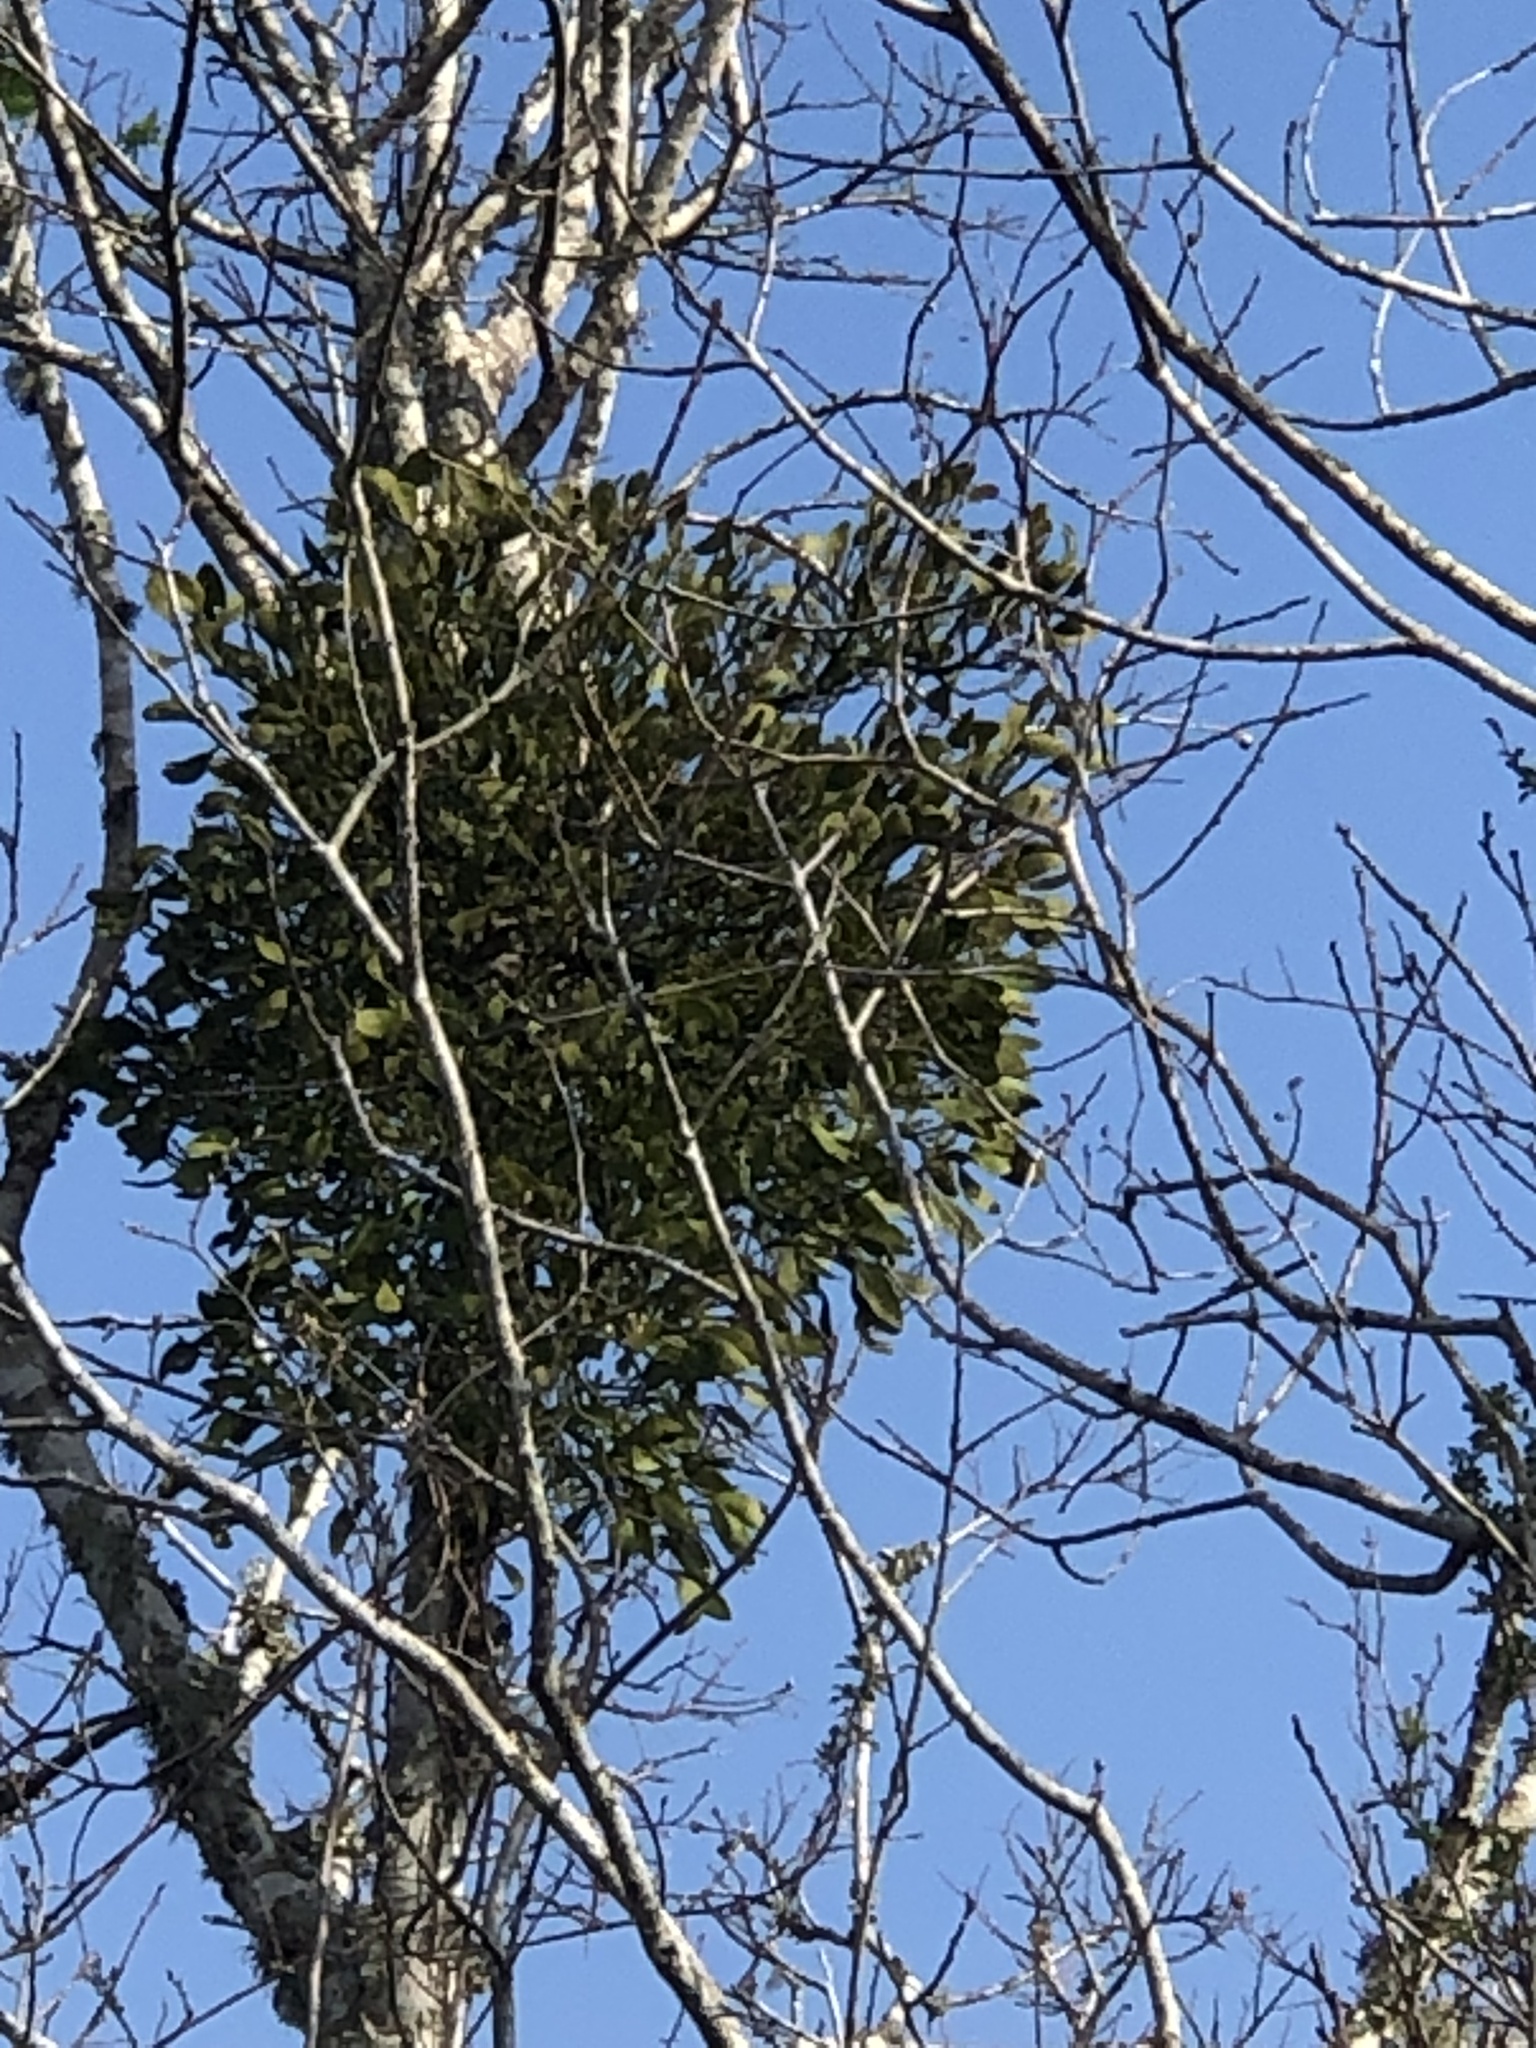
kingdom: Plantae
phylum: Tracheophyta
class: Magnoliopsida
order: Santalales
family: Viscaceae
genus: Phoradendron
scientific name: Phoradendron leucarpum
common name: Pacific mistletoe
